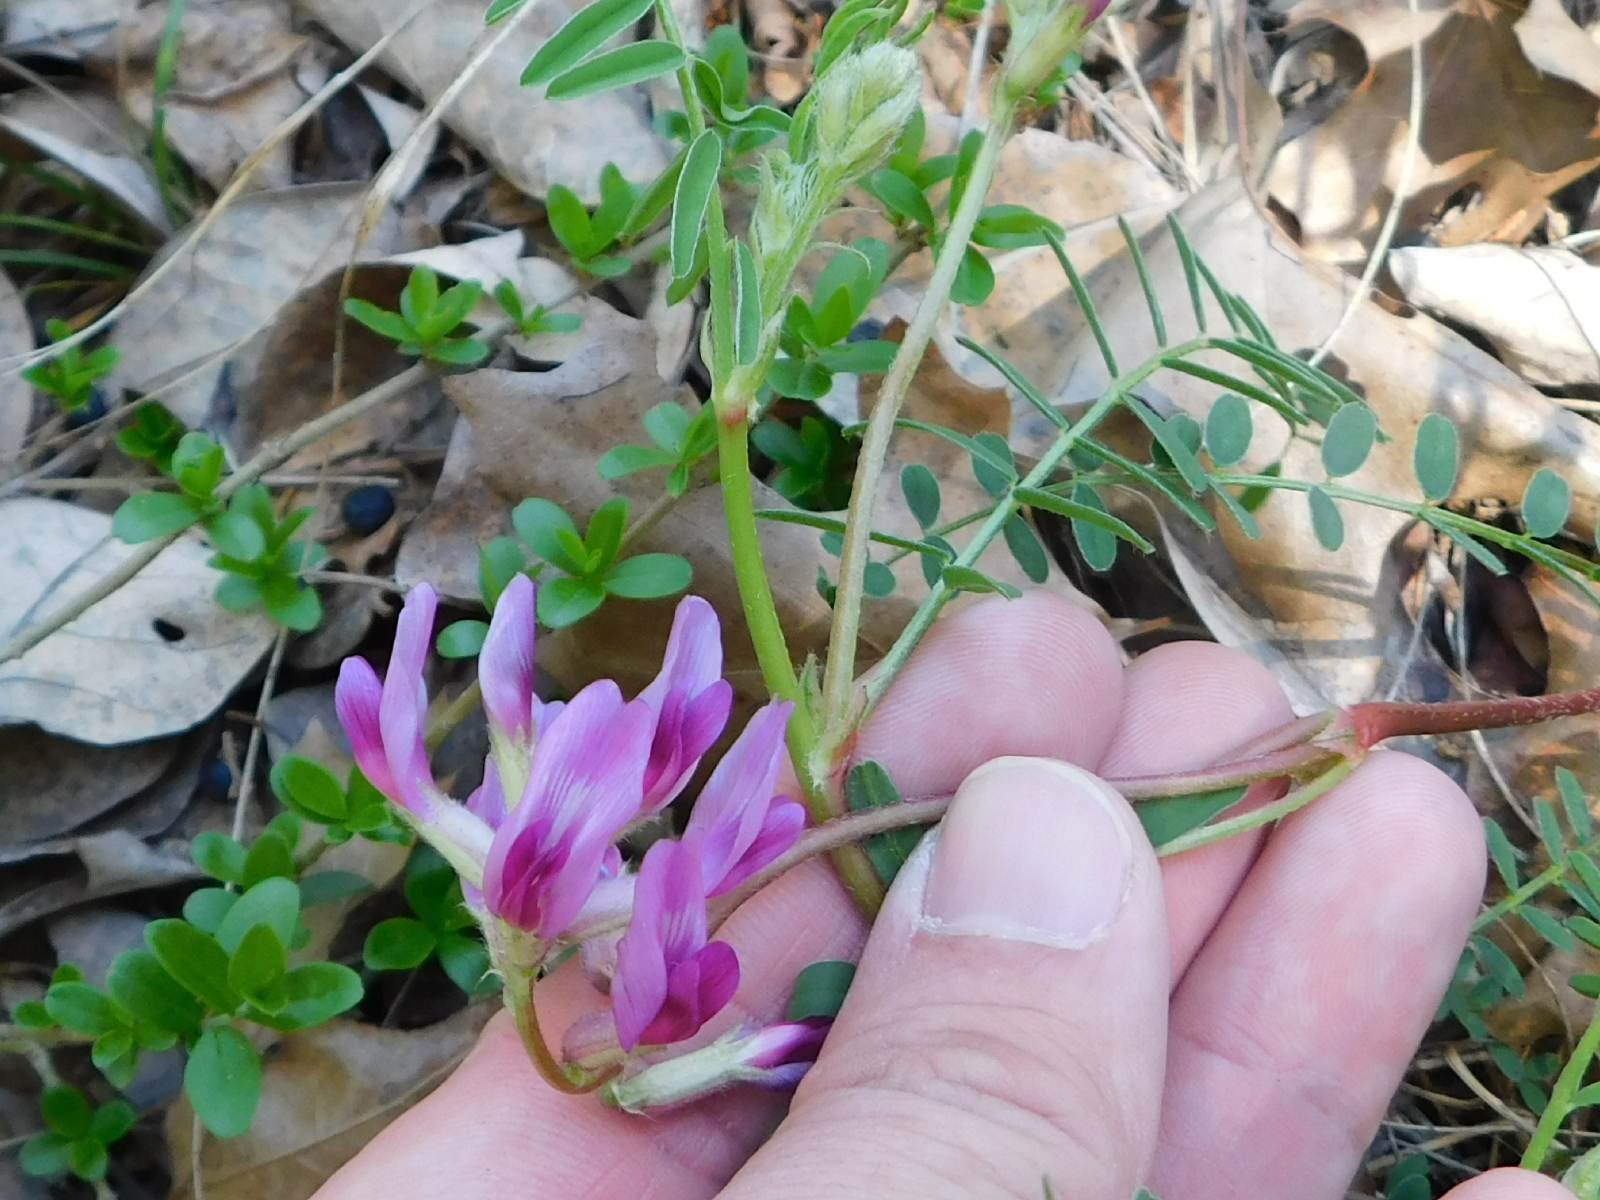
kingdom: Plantae
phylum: Tracheophyta
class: Magnoliopsida
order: Fabales
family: Fabaceae
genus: Astragalus
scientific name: Astragalus crassicarpus
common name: Ground-plum milk-vetch
